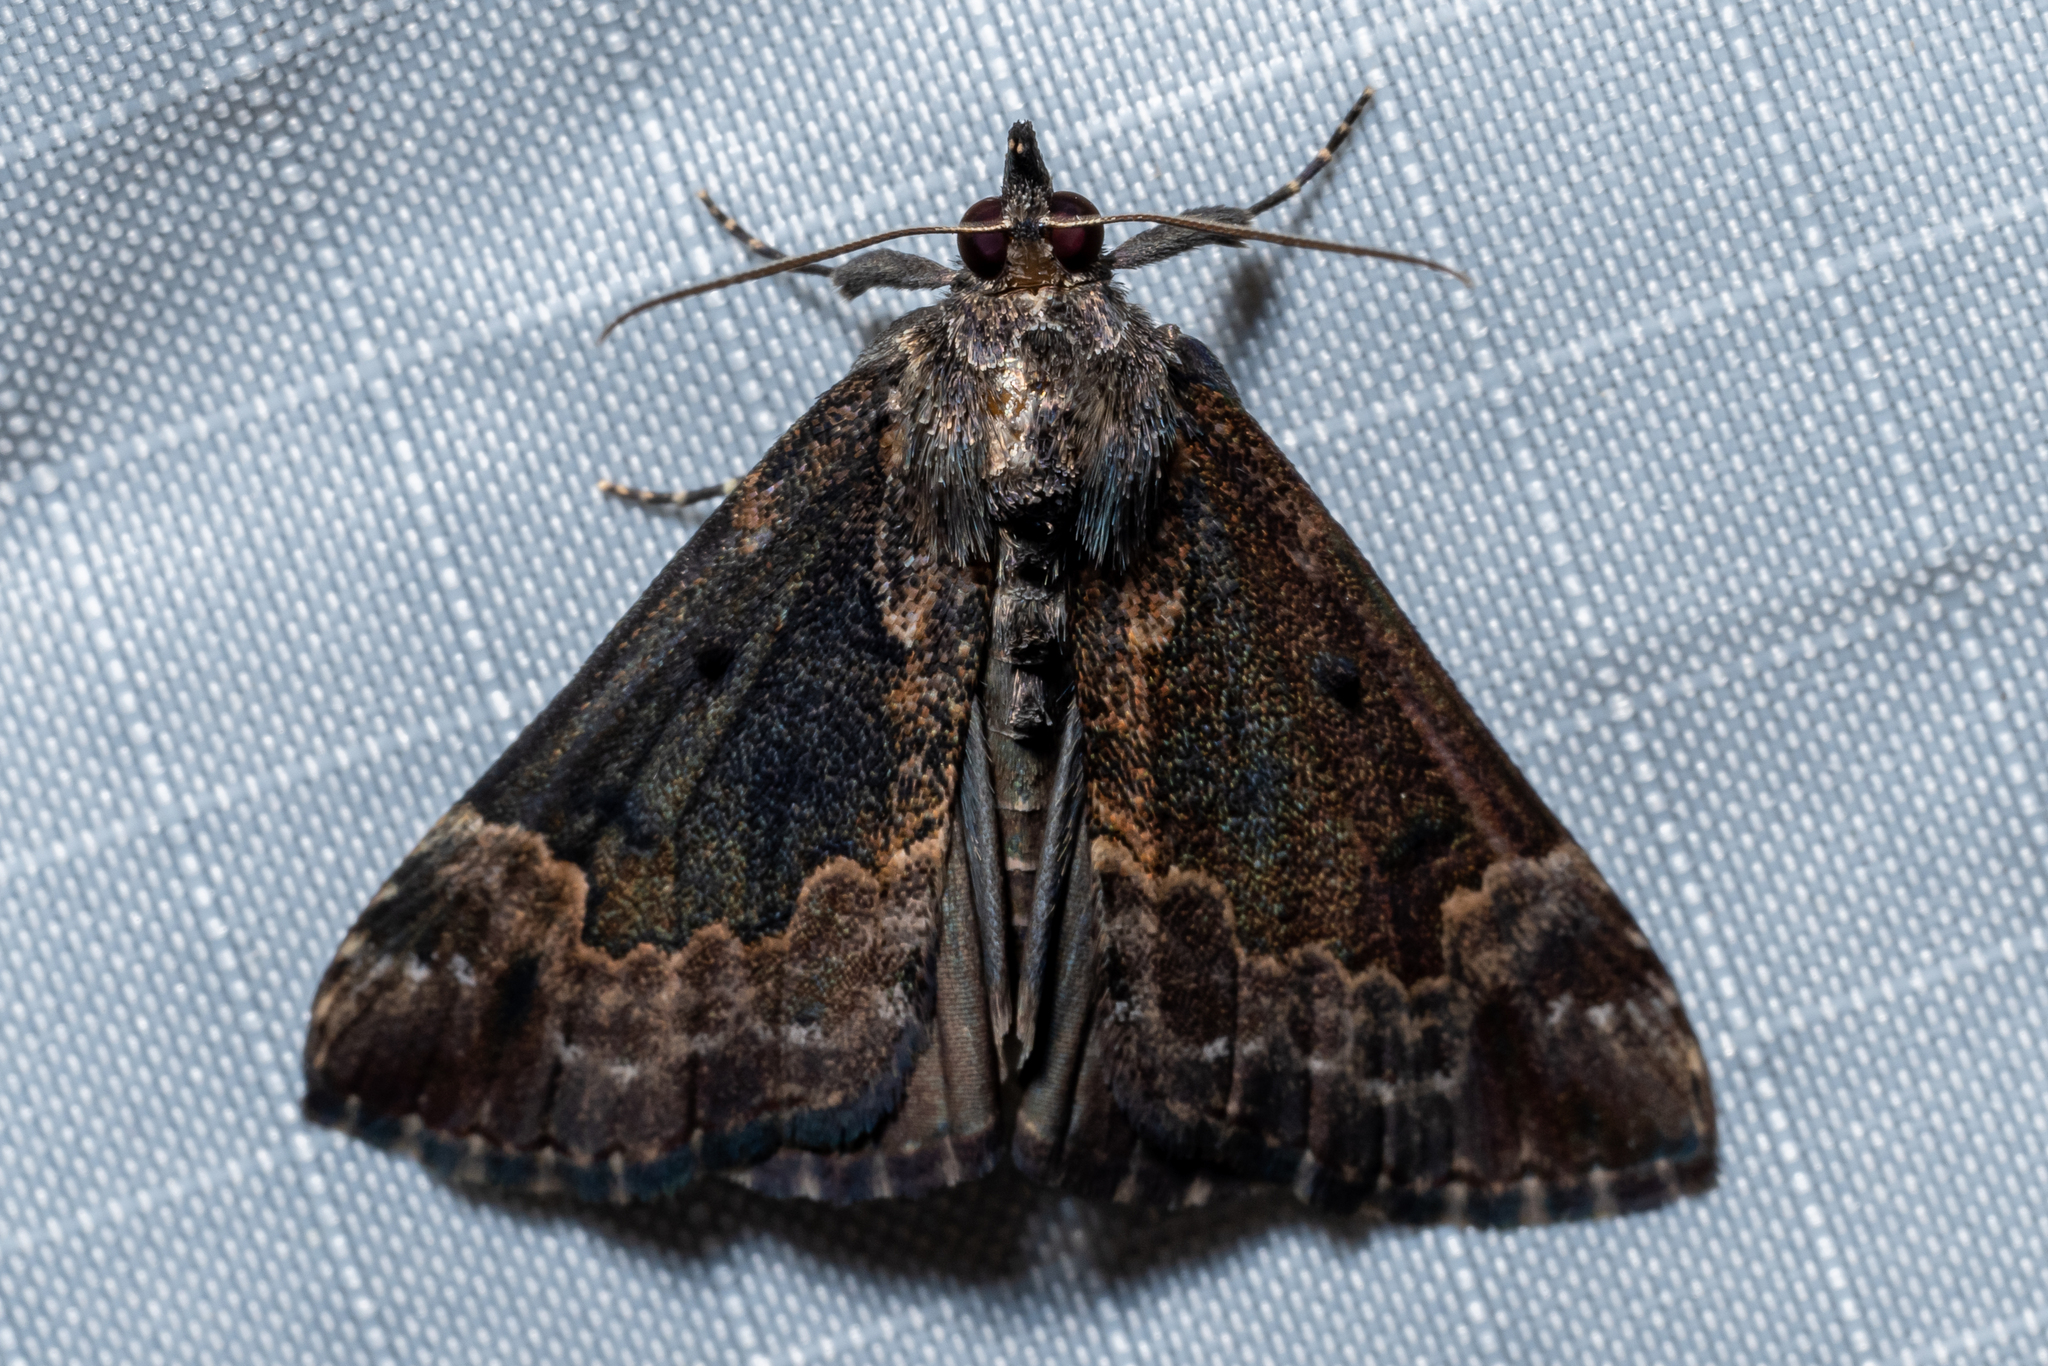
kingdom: Animalia
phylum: Arthropoda
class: Insecta
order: Lepidoptera
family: Erebidae
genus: Hypena
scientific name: Hypena baltimoralis
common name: Baltimore snout
